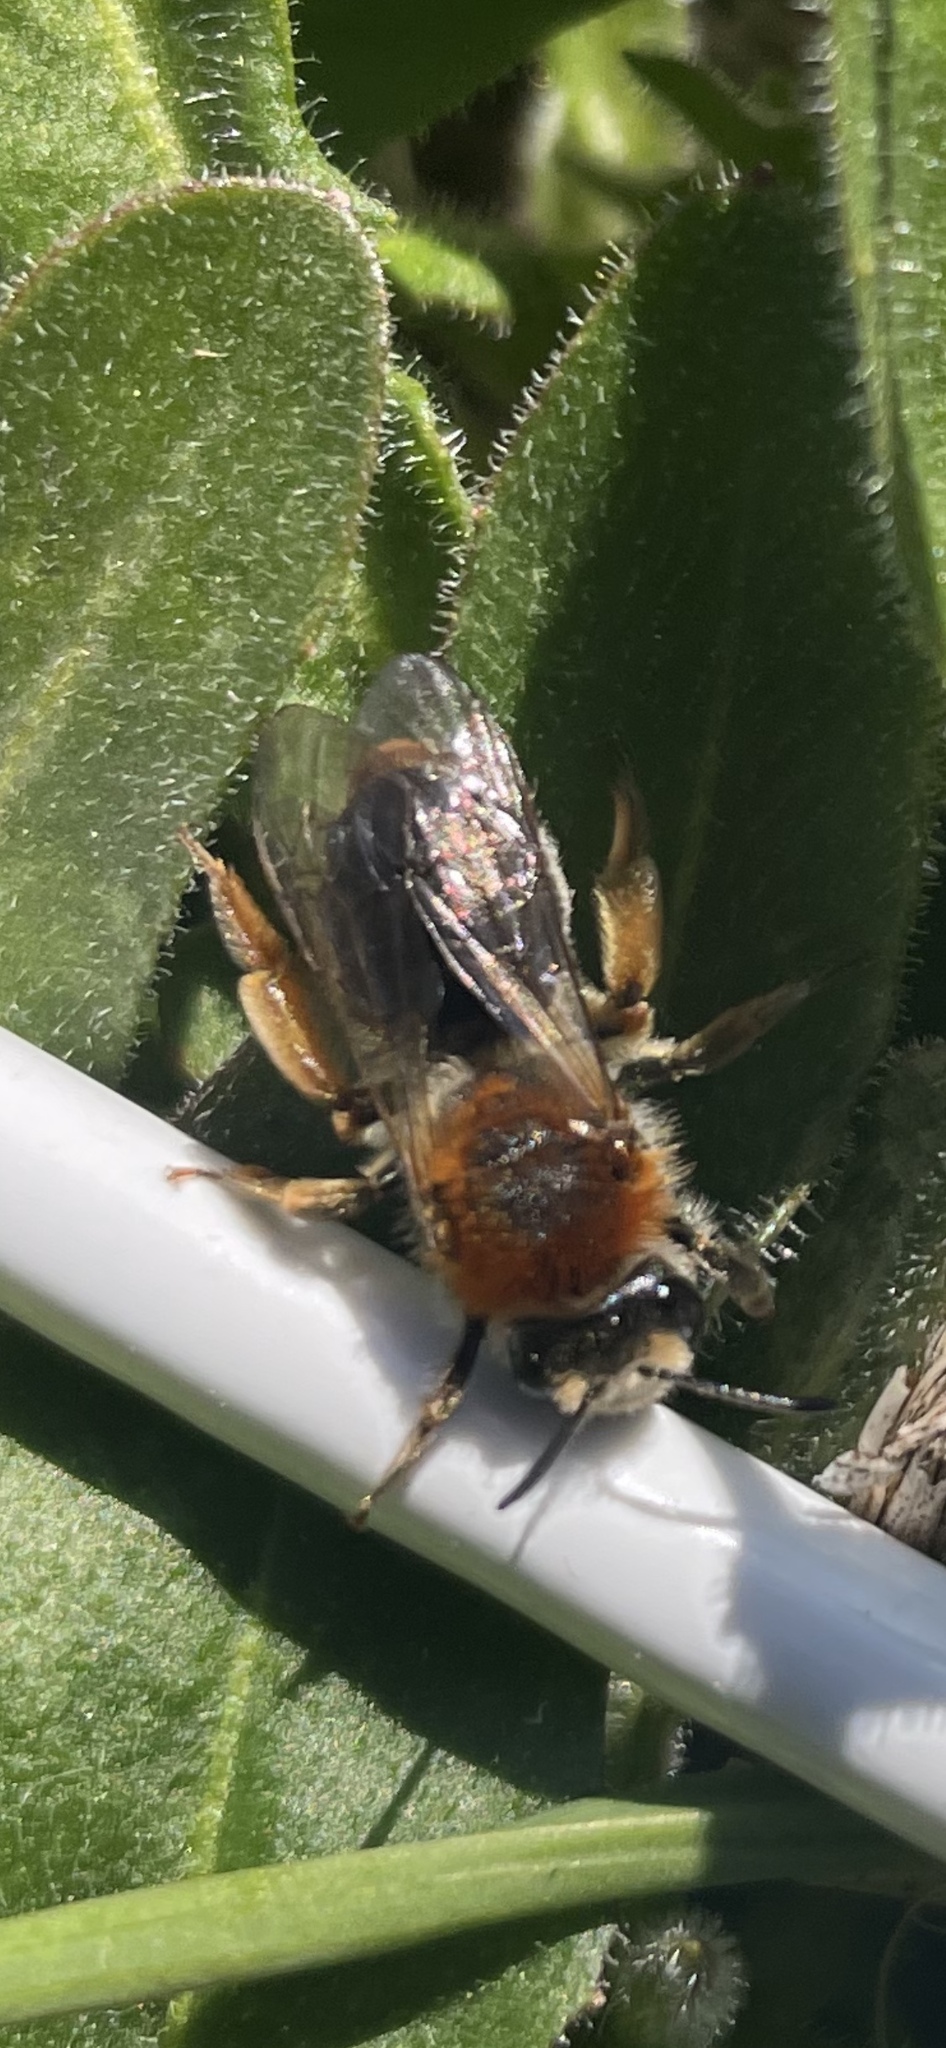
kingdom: Animalia
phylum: Arthropoda
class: Insecta
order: Hymenoptera
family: Andrenidae
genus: Andrena
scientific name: Andrena haemorrhoa
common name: Early mining bee
